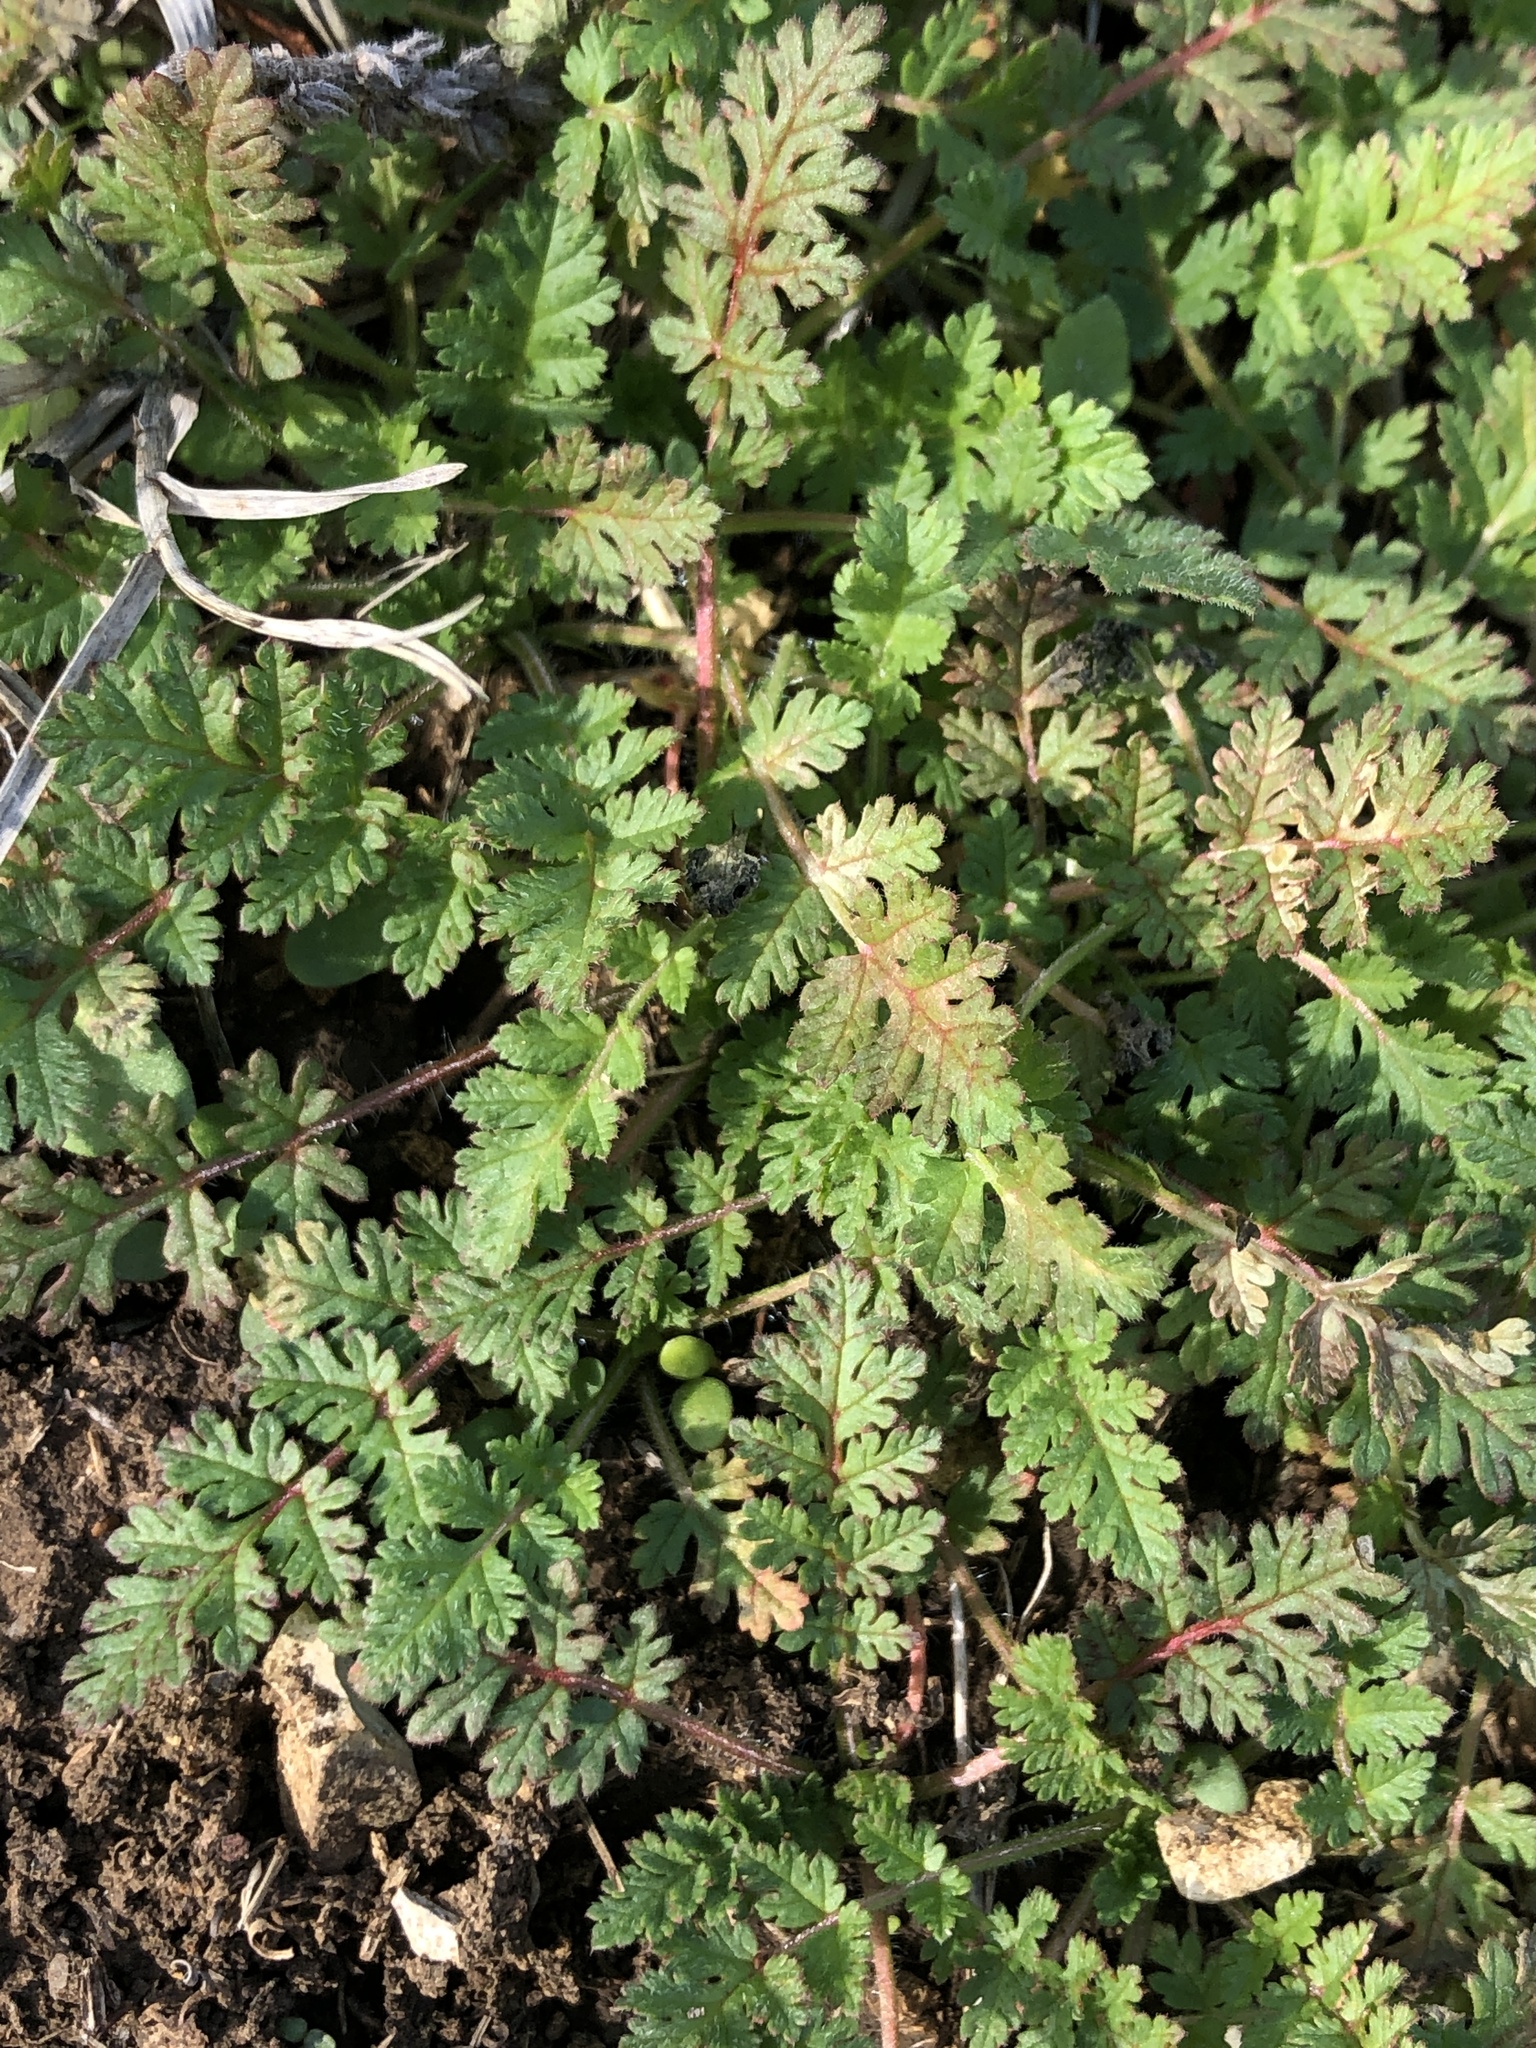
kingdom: Plantae
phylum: Tracheophyta
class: Magnoliopsida
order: Geraniales
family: Geraniaceae
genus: Erodium
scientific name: Erodium cicutarium
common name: Common stork's-bill
